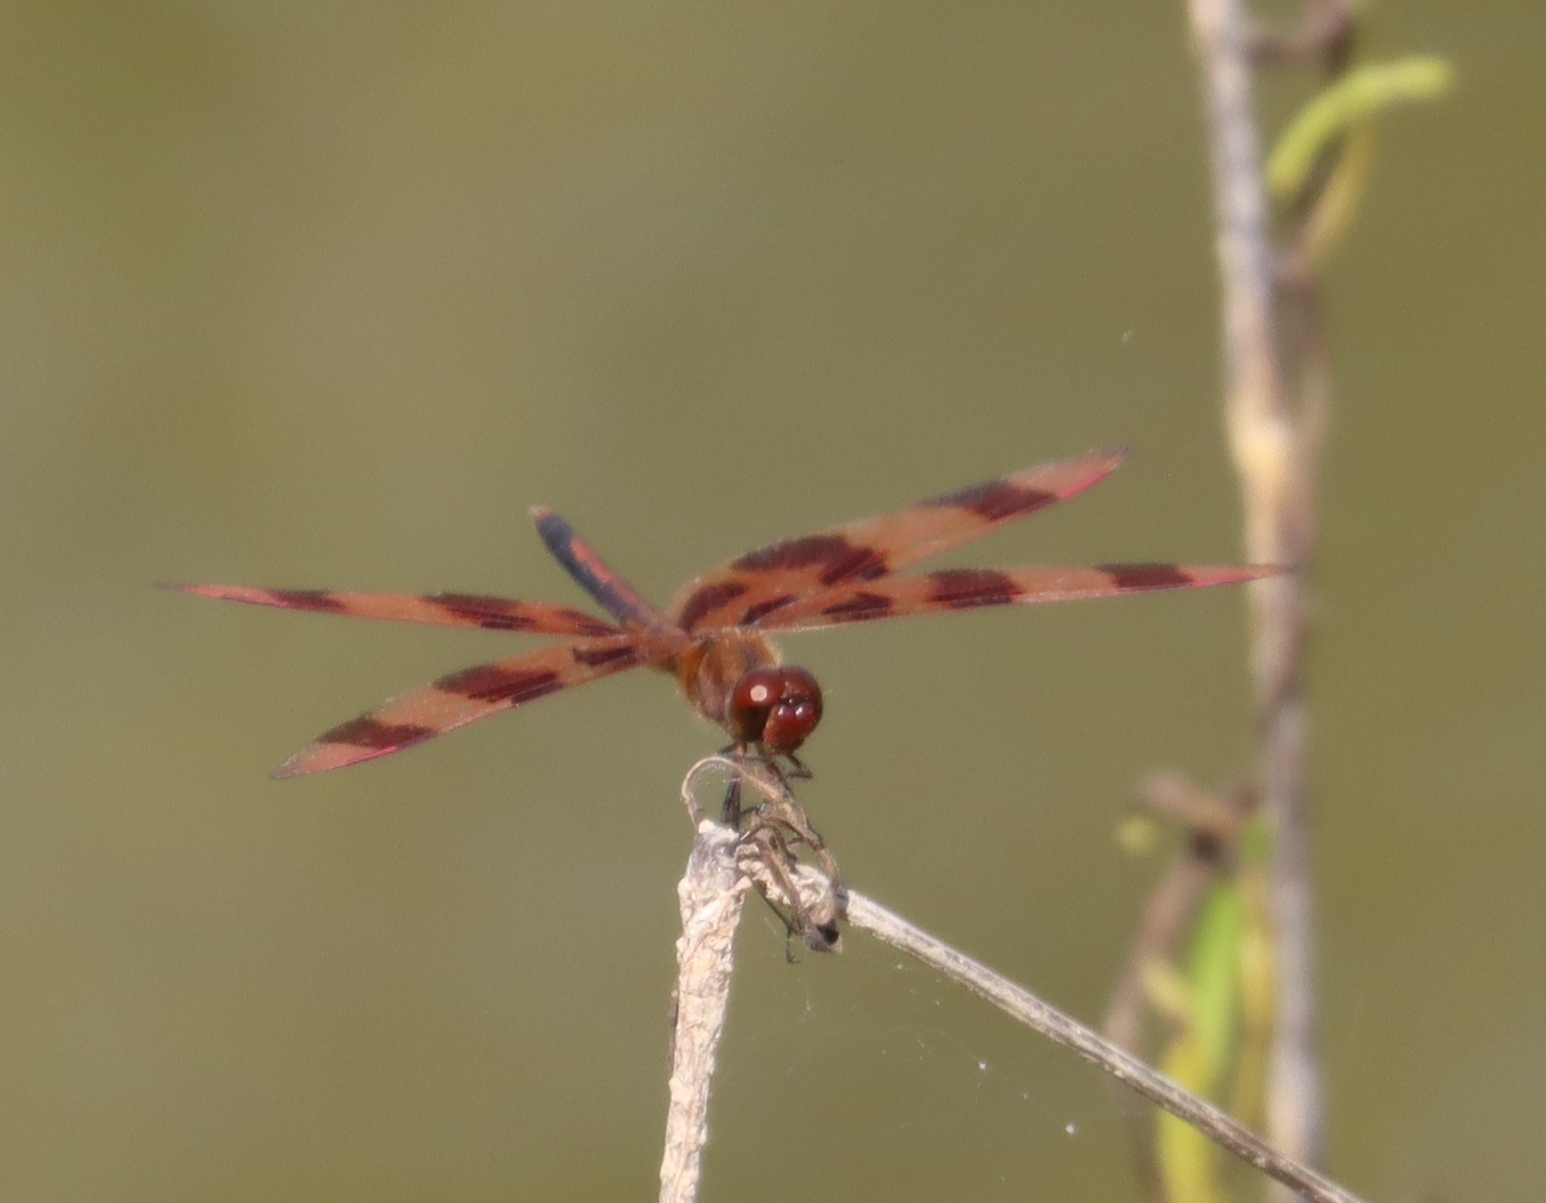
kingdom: Animalia
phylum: Arthropoda
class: Insecta
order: Odonata
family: Libellulidae
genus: Celithemis
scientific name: Celithemis eponina
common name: Halloween pennant
